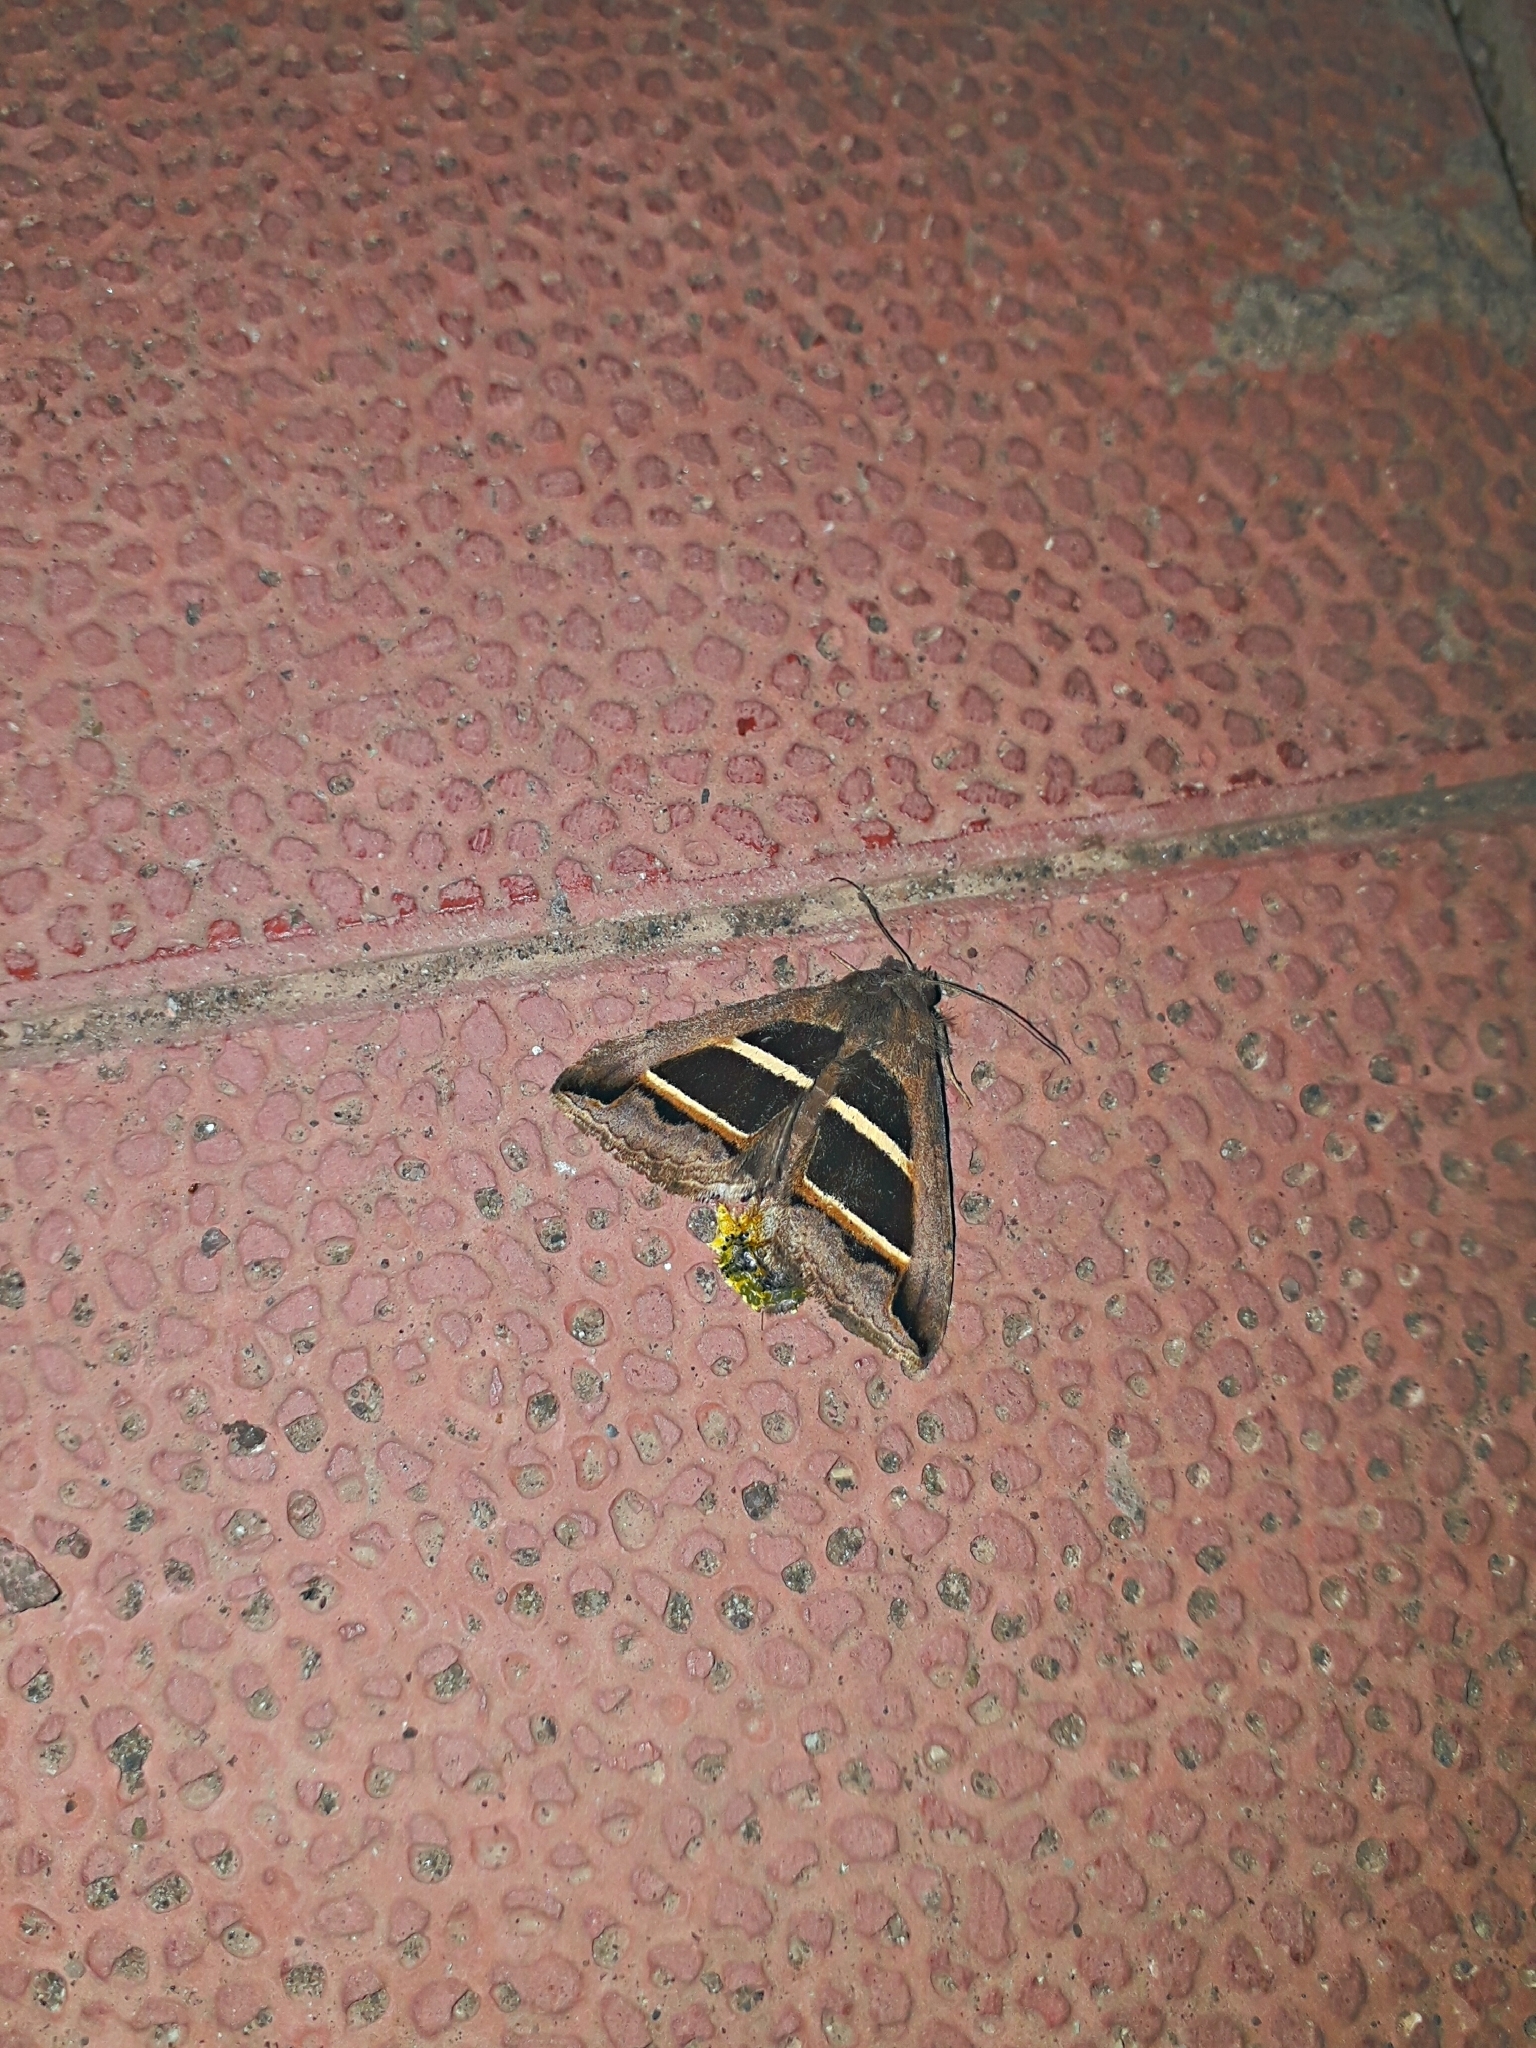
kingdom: Animalia
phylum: Arthropoda
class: Insecta
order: Lepidoptera
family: Erebidae
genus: Grammodes
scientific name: Grammodes bifasciata
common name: Parallel lines
